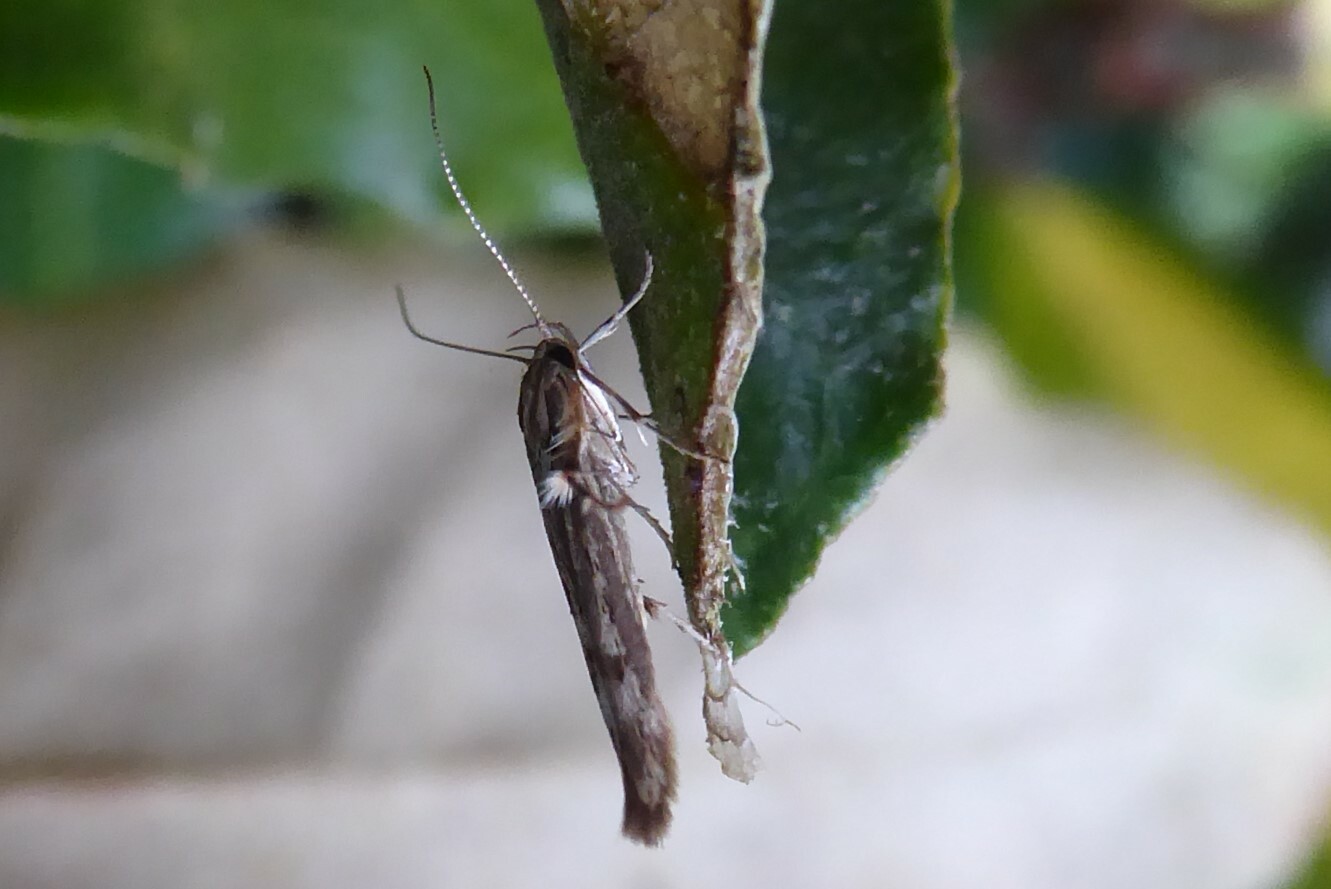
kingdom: Animalia
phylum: Arthropoda
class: Insecta
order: Lepidoptera
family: Stathmopodidae
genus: Stathmopoda
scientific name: Stathmopoda plumbiflua
